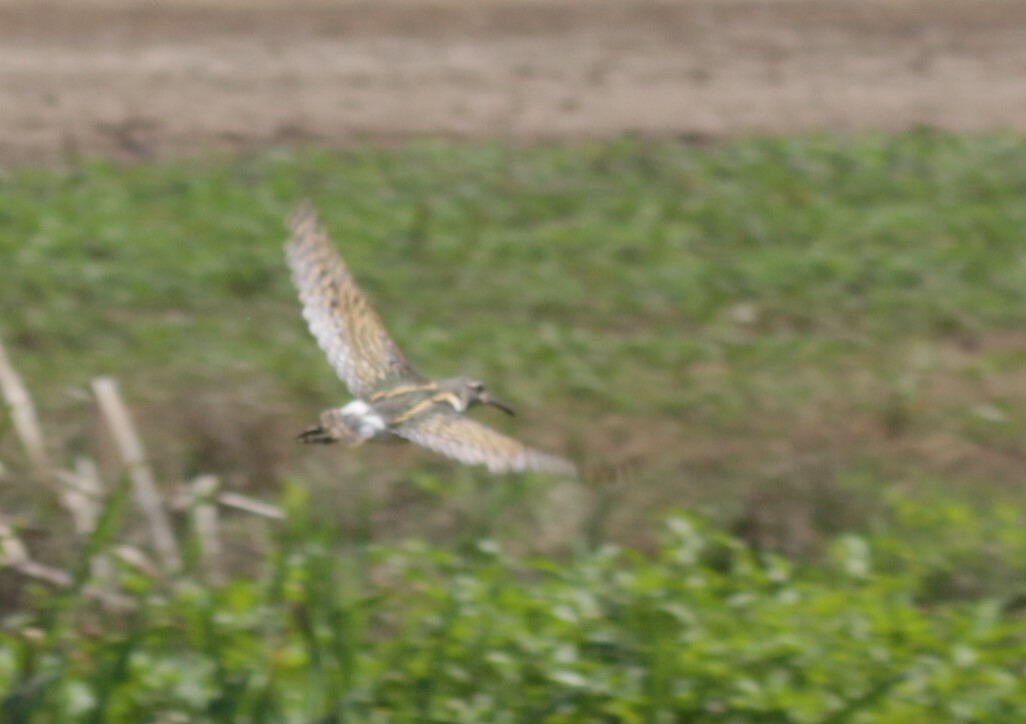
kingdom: Animalia
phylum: Chordata
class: Aves
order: Charadriiformes
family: Rostratulidae
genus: Rostratula
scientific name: Rostratula benghalensis
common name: Greater painted-snipe
